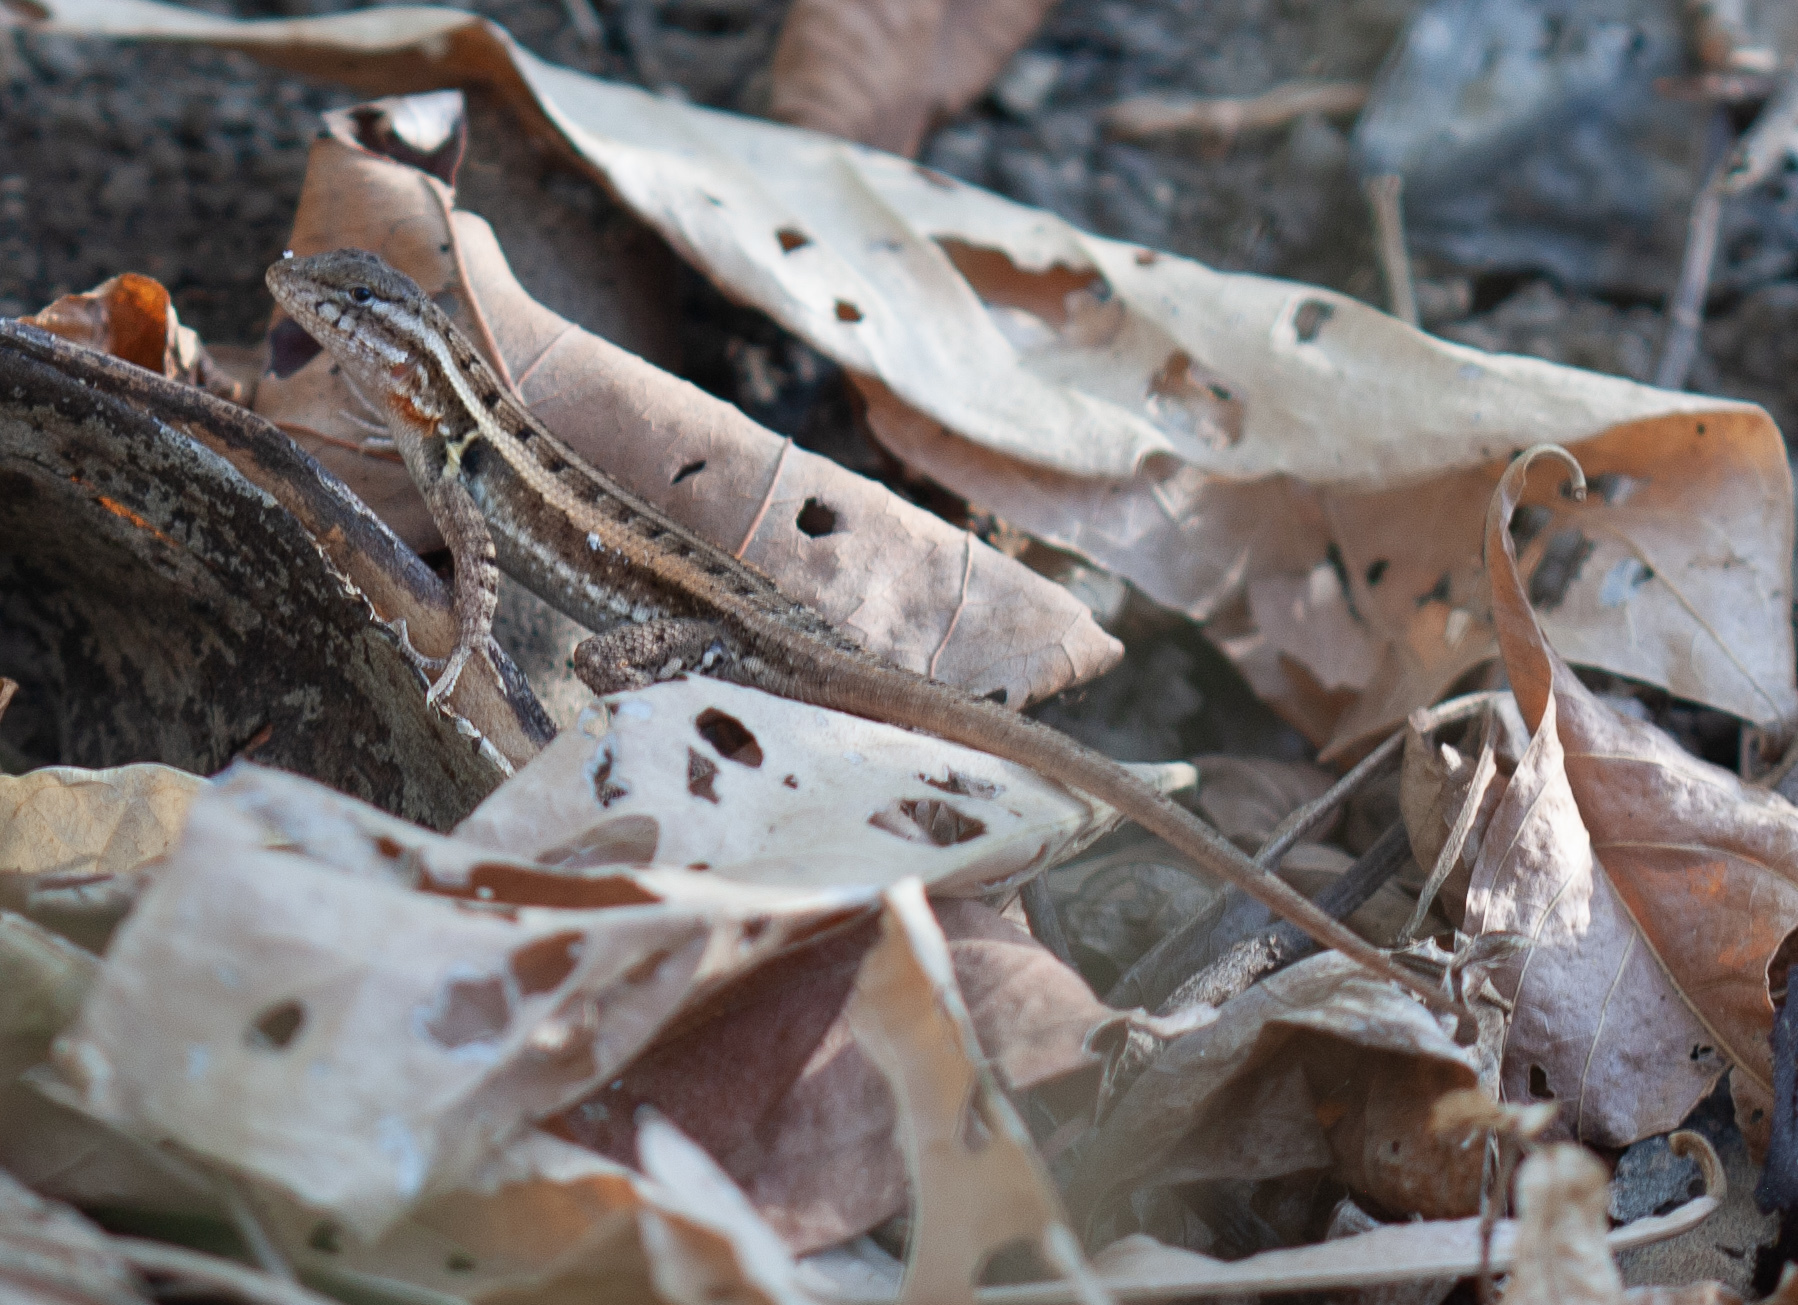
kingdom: Animalia
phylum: Chordata
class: Squamata
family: Phrynosomatidae
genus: Sceloporus
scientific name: Sceloporus variabilis
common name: Rosebelly lizard
